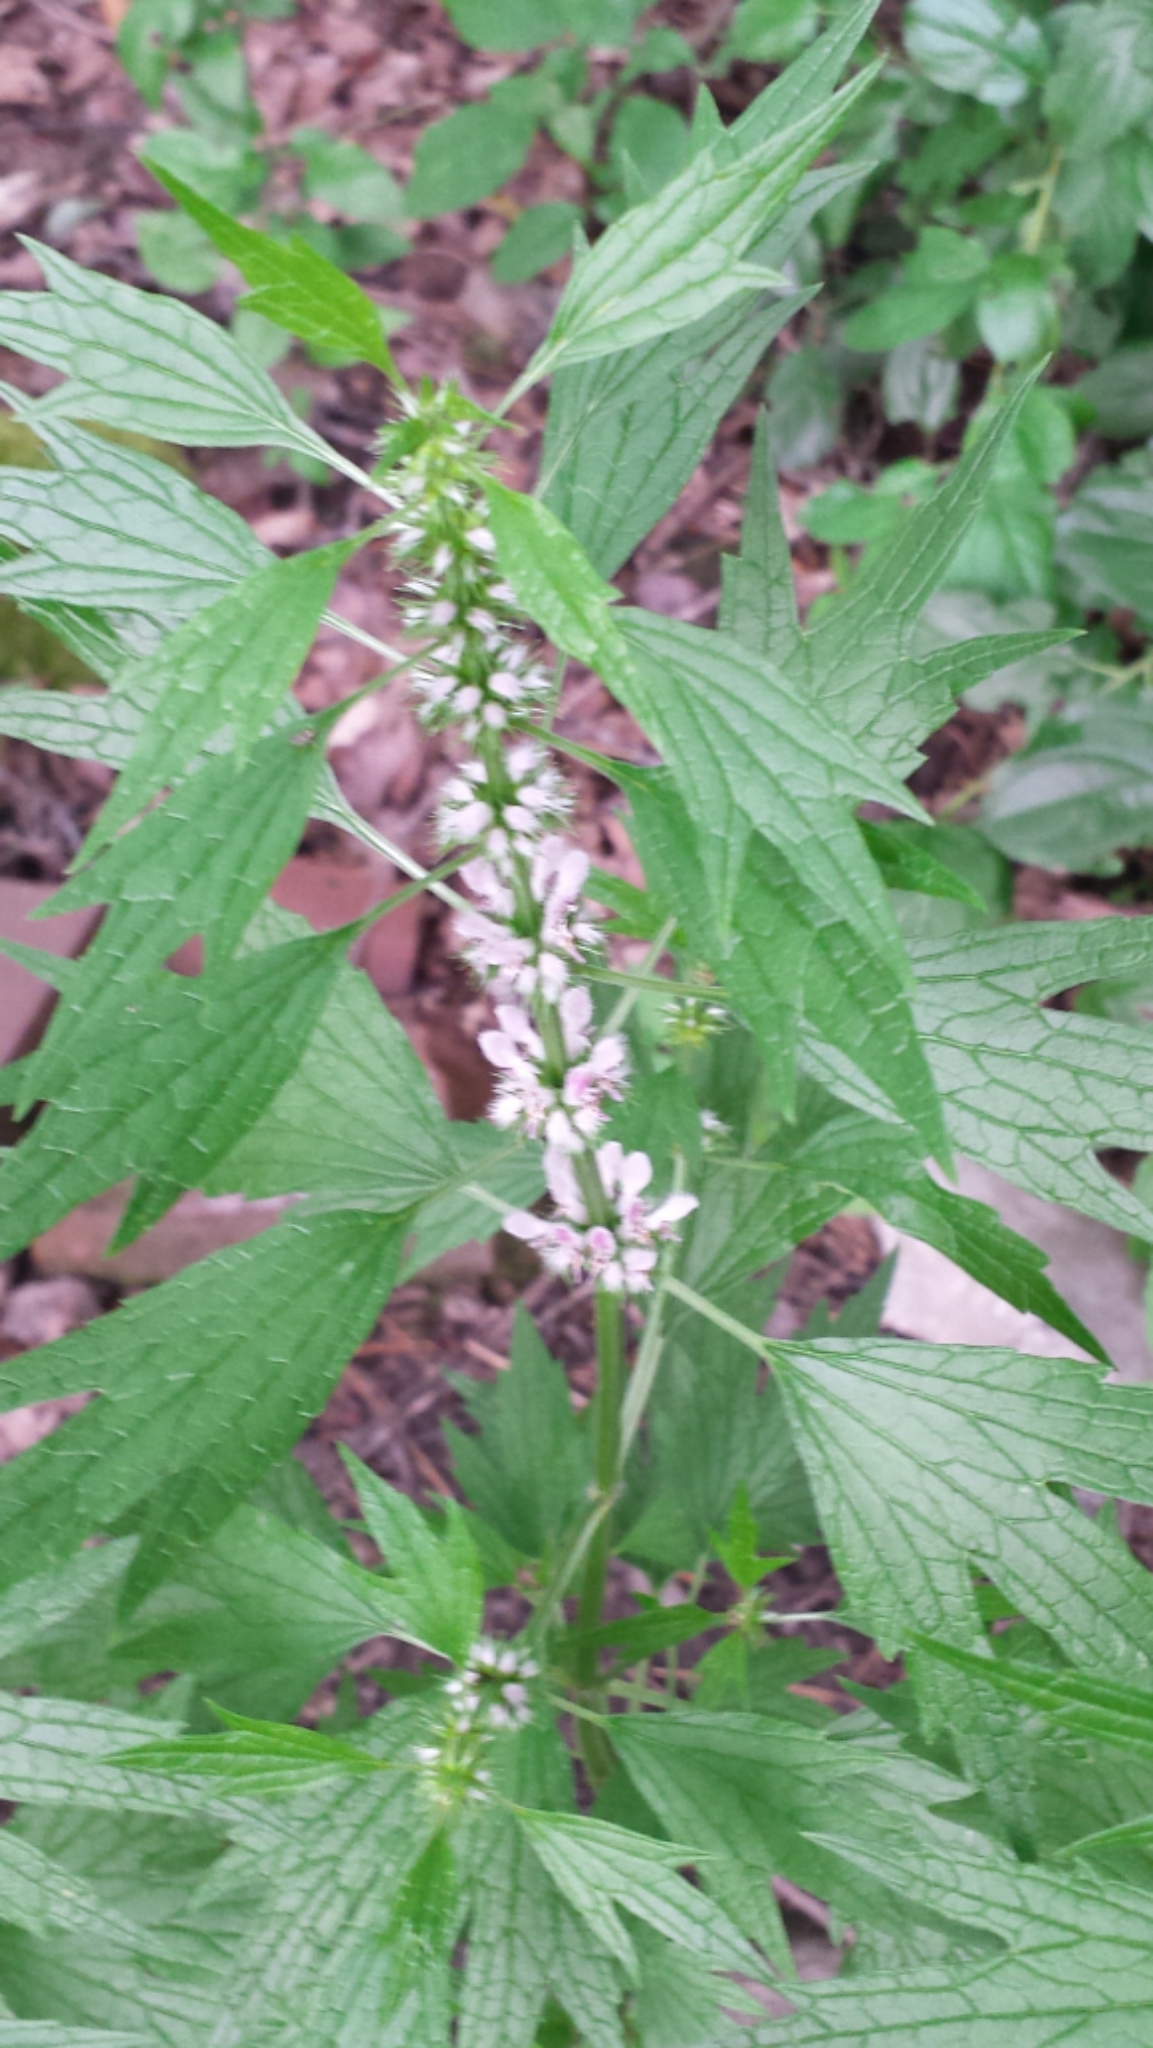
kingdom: Plantae
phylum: Tracheophyta
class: Magnoliopsida
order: Lamiales
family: Lamiaceae
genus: Leonurus
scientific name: Leonurus cardiaca
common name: Motherwort
